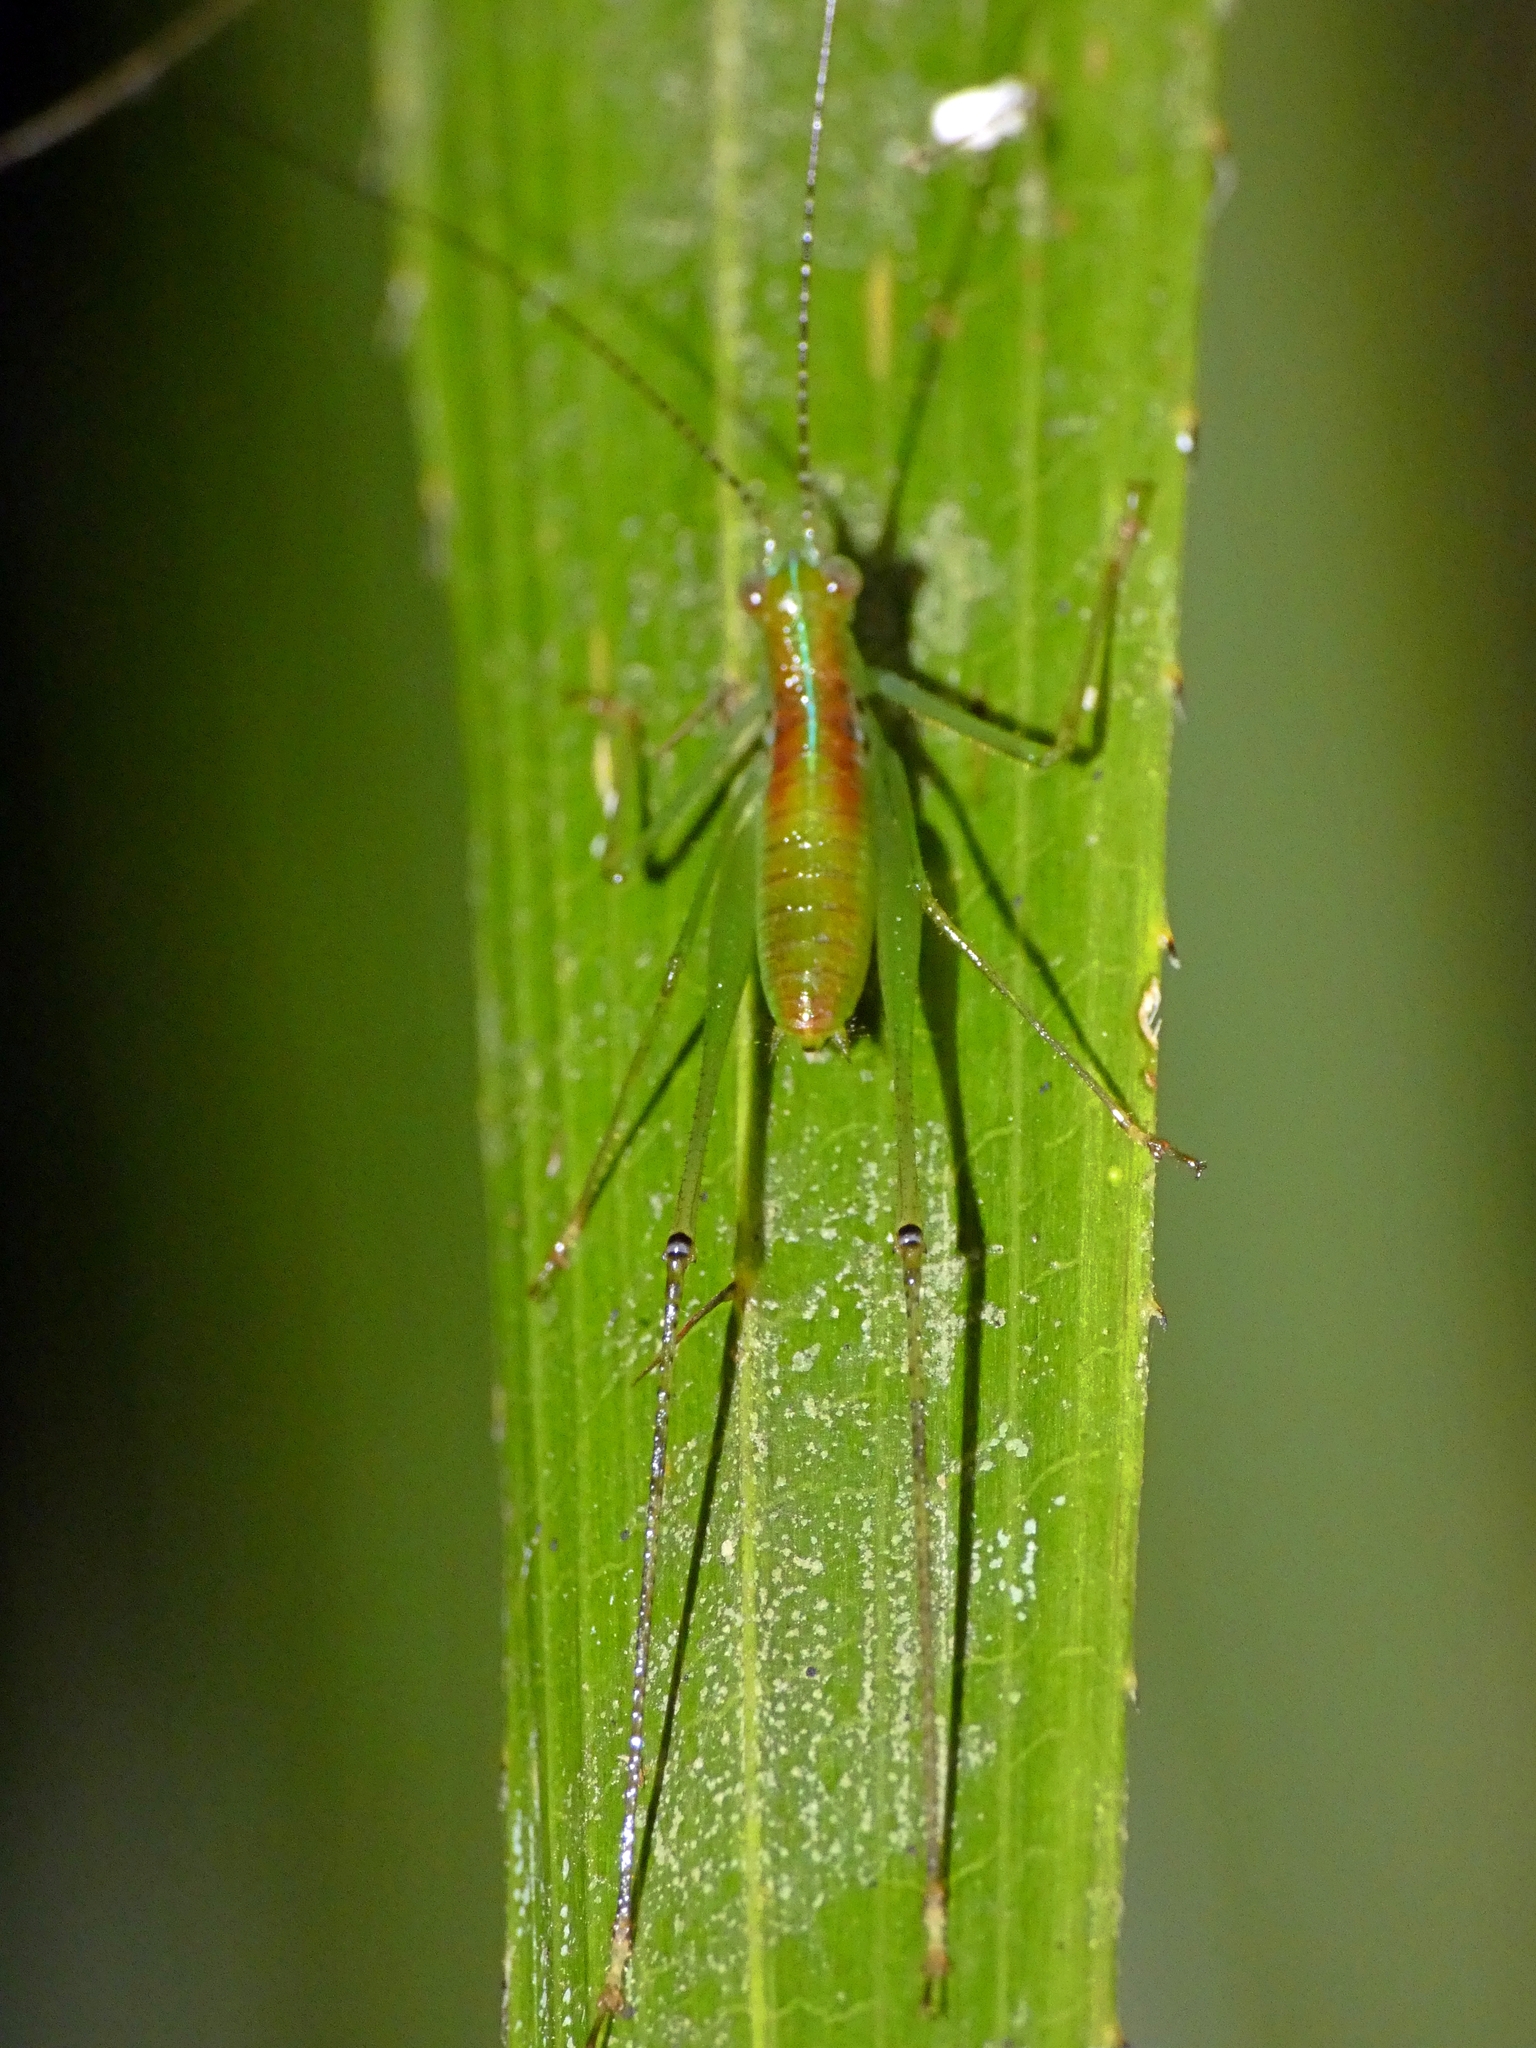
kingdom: Animalia
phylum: Arthropoda
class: Insecta
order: Orthoptera
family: Tettigoniidae
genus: Kurandoptera
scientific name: Kurandoptera purpura
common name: Purple-winged katydid
